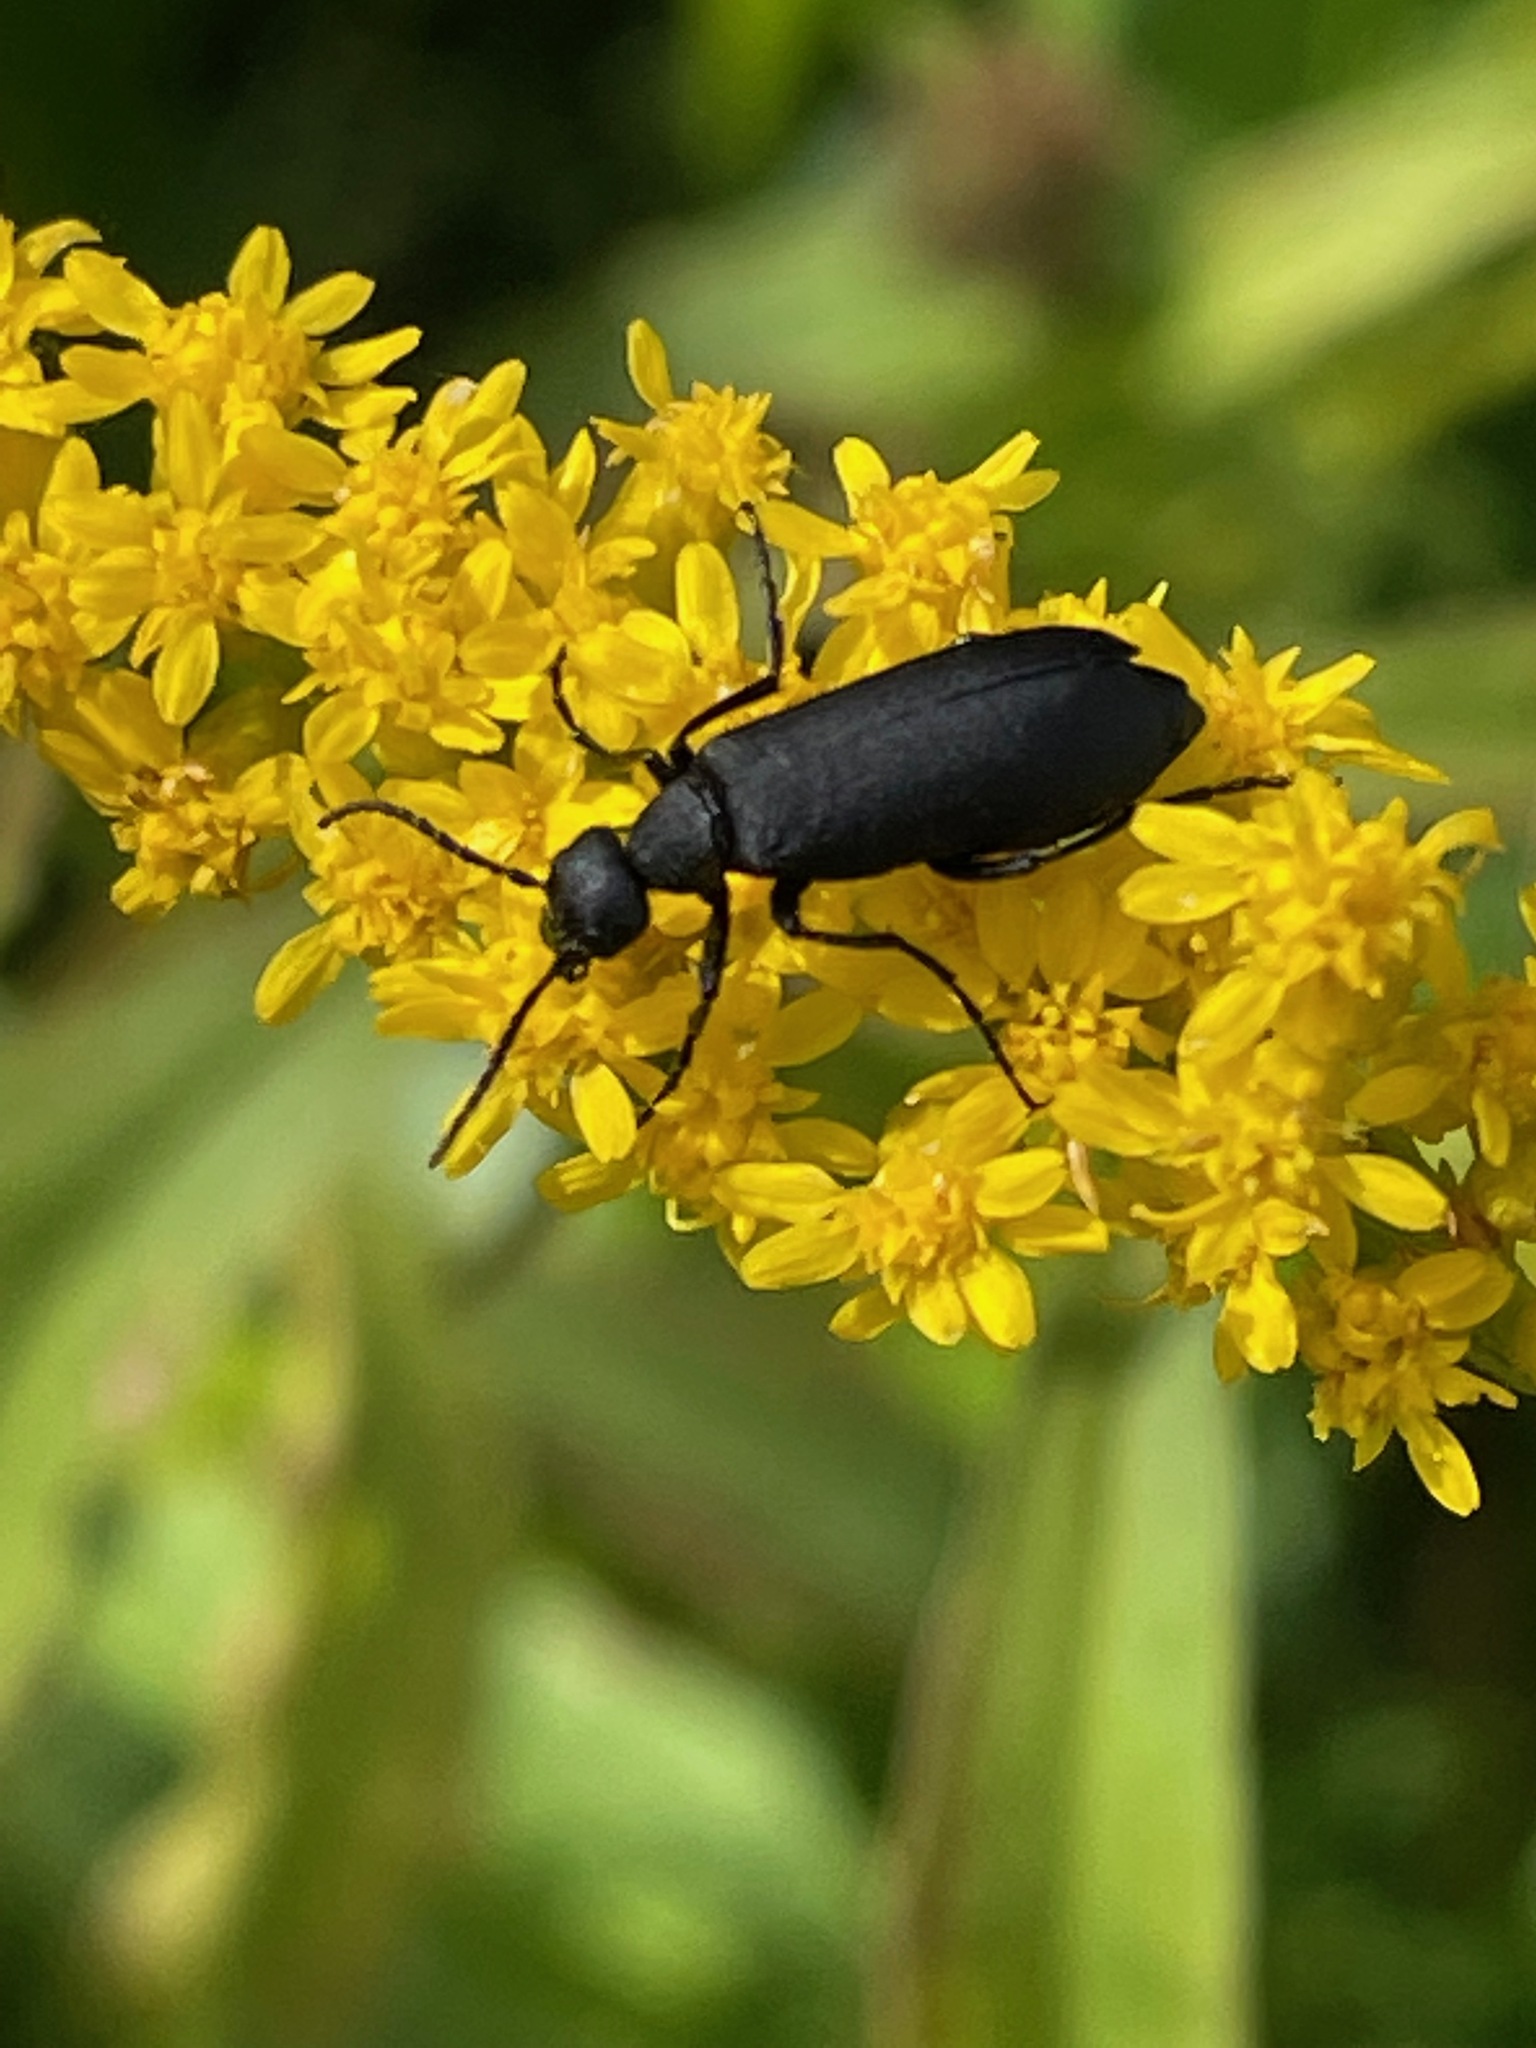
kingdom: Animalia
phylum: Arthropoda
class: Insecta
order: Coleoptera
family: Meloidae
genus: Epicauta
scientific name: Epicauta pensylvanica
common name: Black blister beetle
